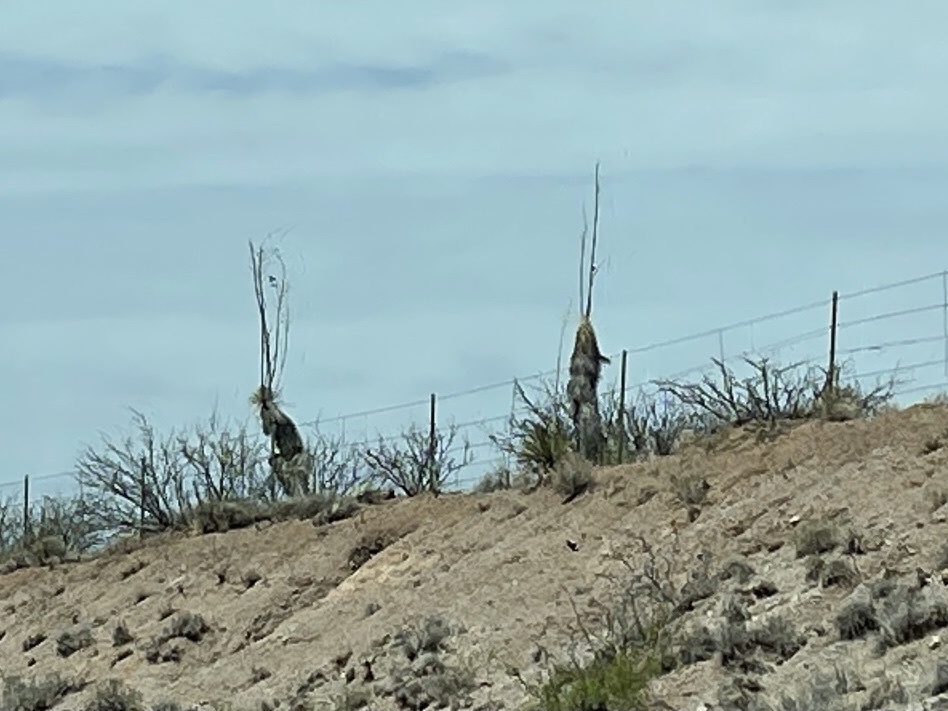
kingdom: Plantae
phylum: Tracheophyta
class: Liliopsida
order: Asparagales
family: Asparagaceae
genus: Yucca
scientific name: Yucca elata
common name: Palmella
